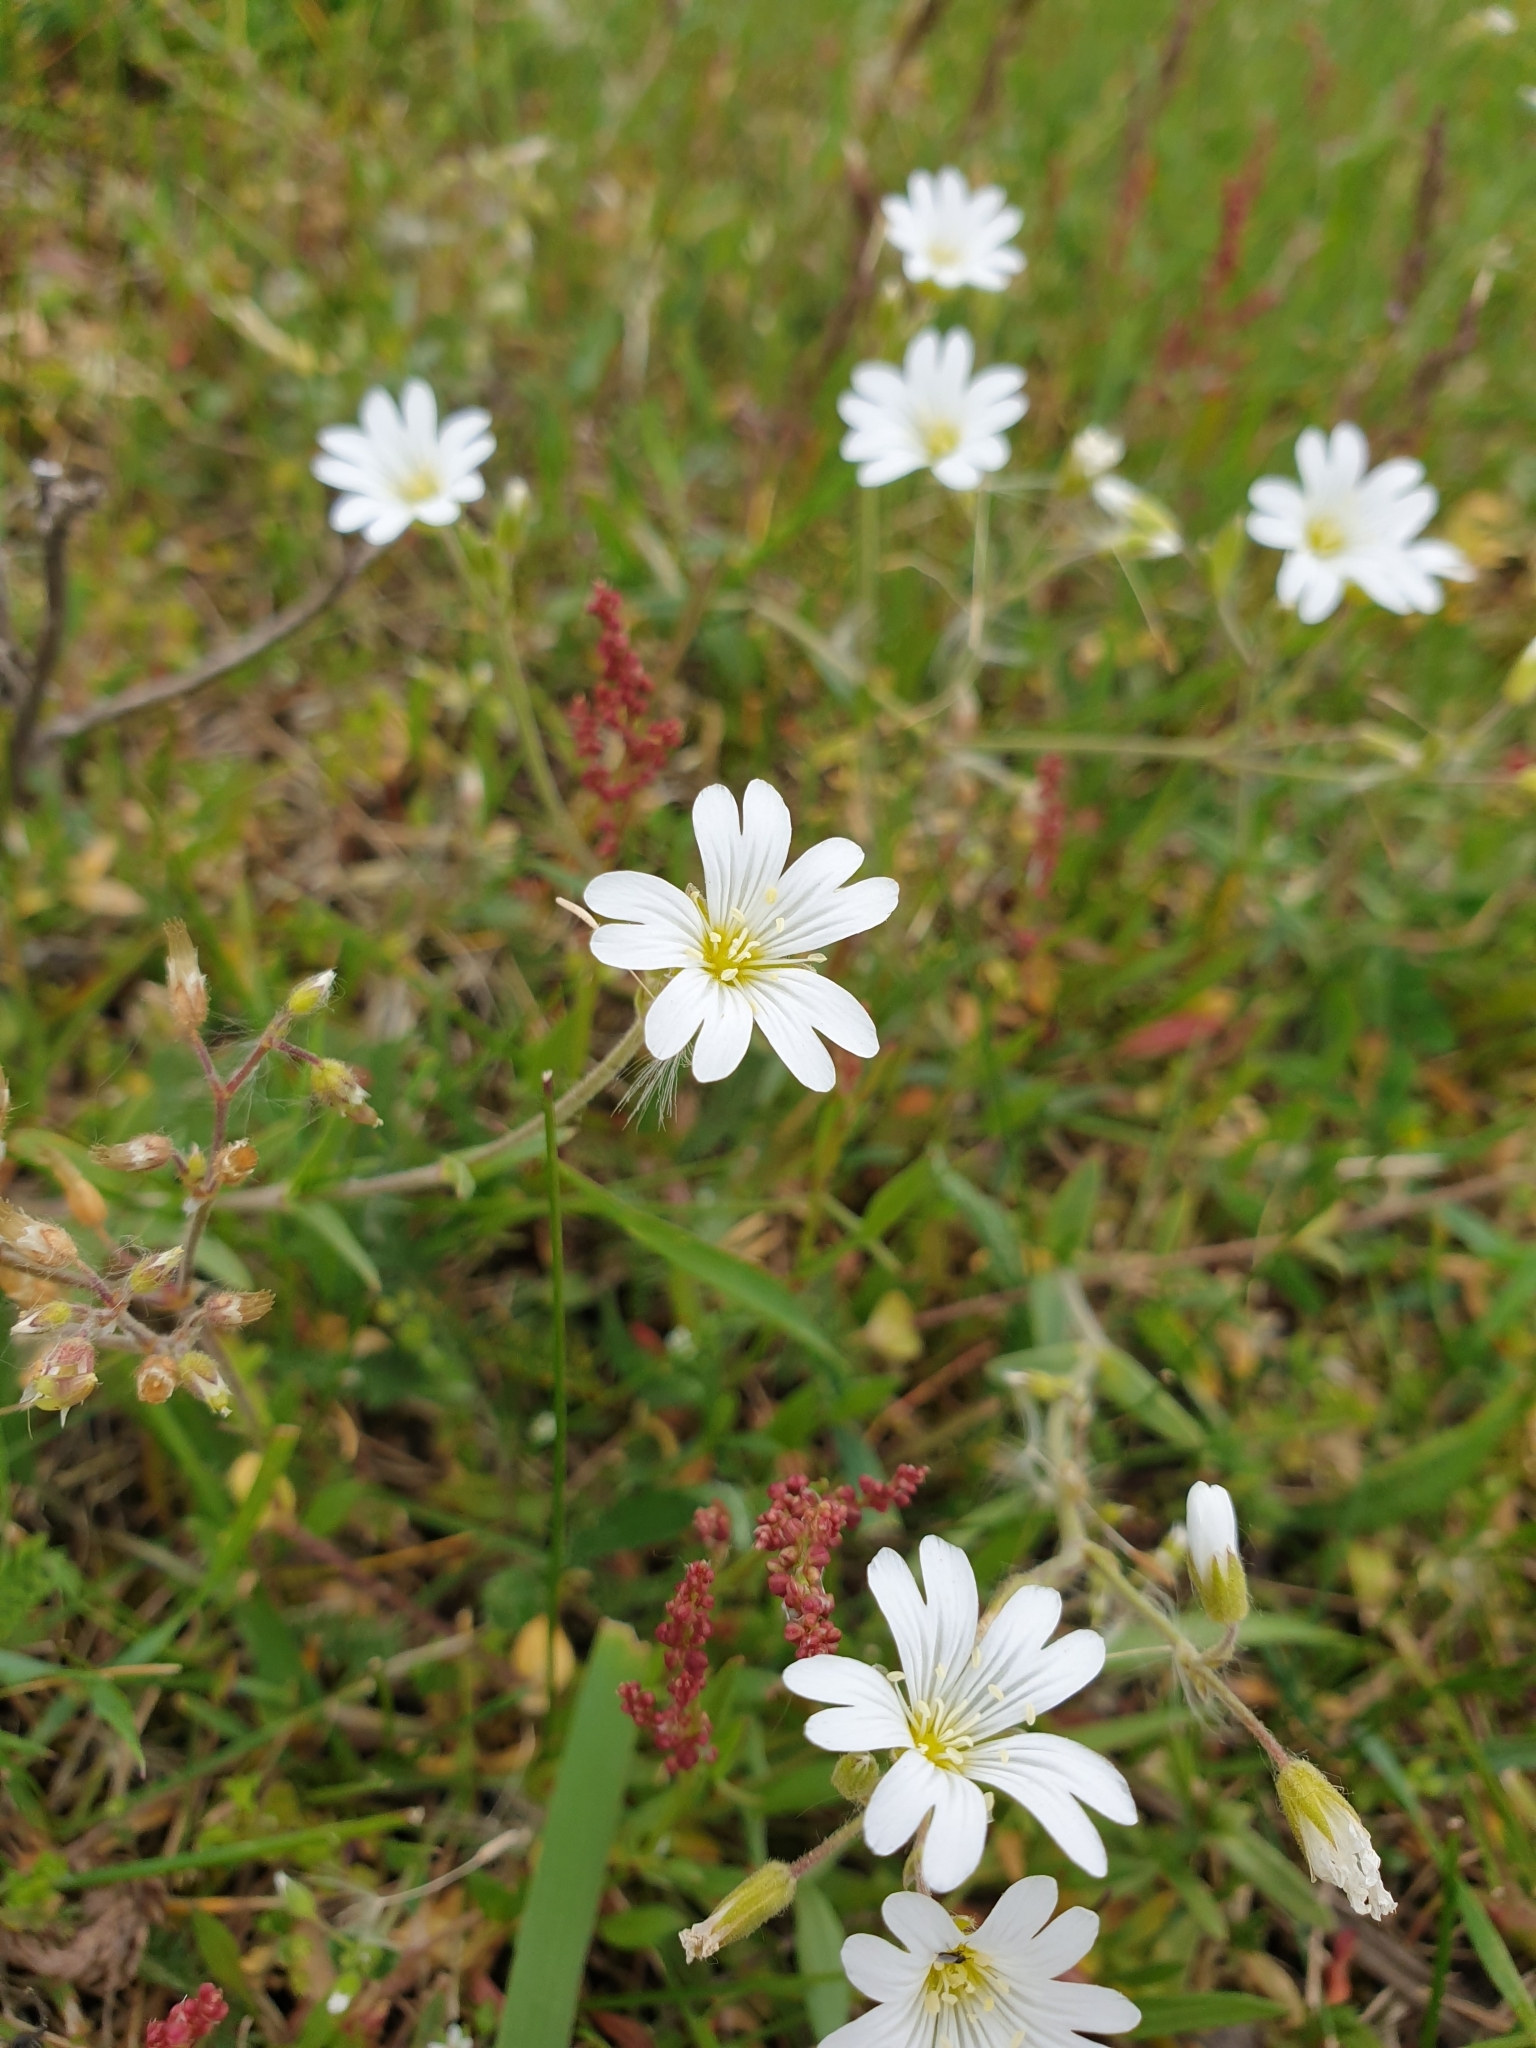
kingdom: Plantae
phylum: Tracheophyta
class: Magnoliopsida
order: Caryophyllales
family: Caryophyllaceae
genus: Cerastium
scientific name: Cerastium arvense
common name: Field mouse-ear
